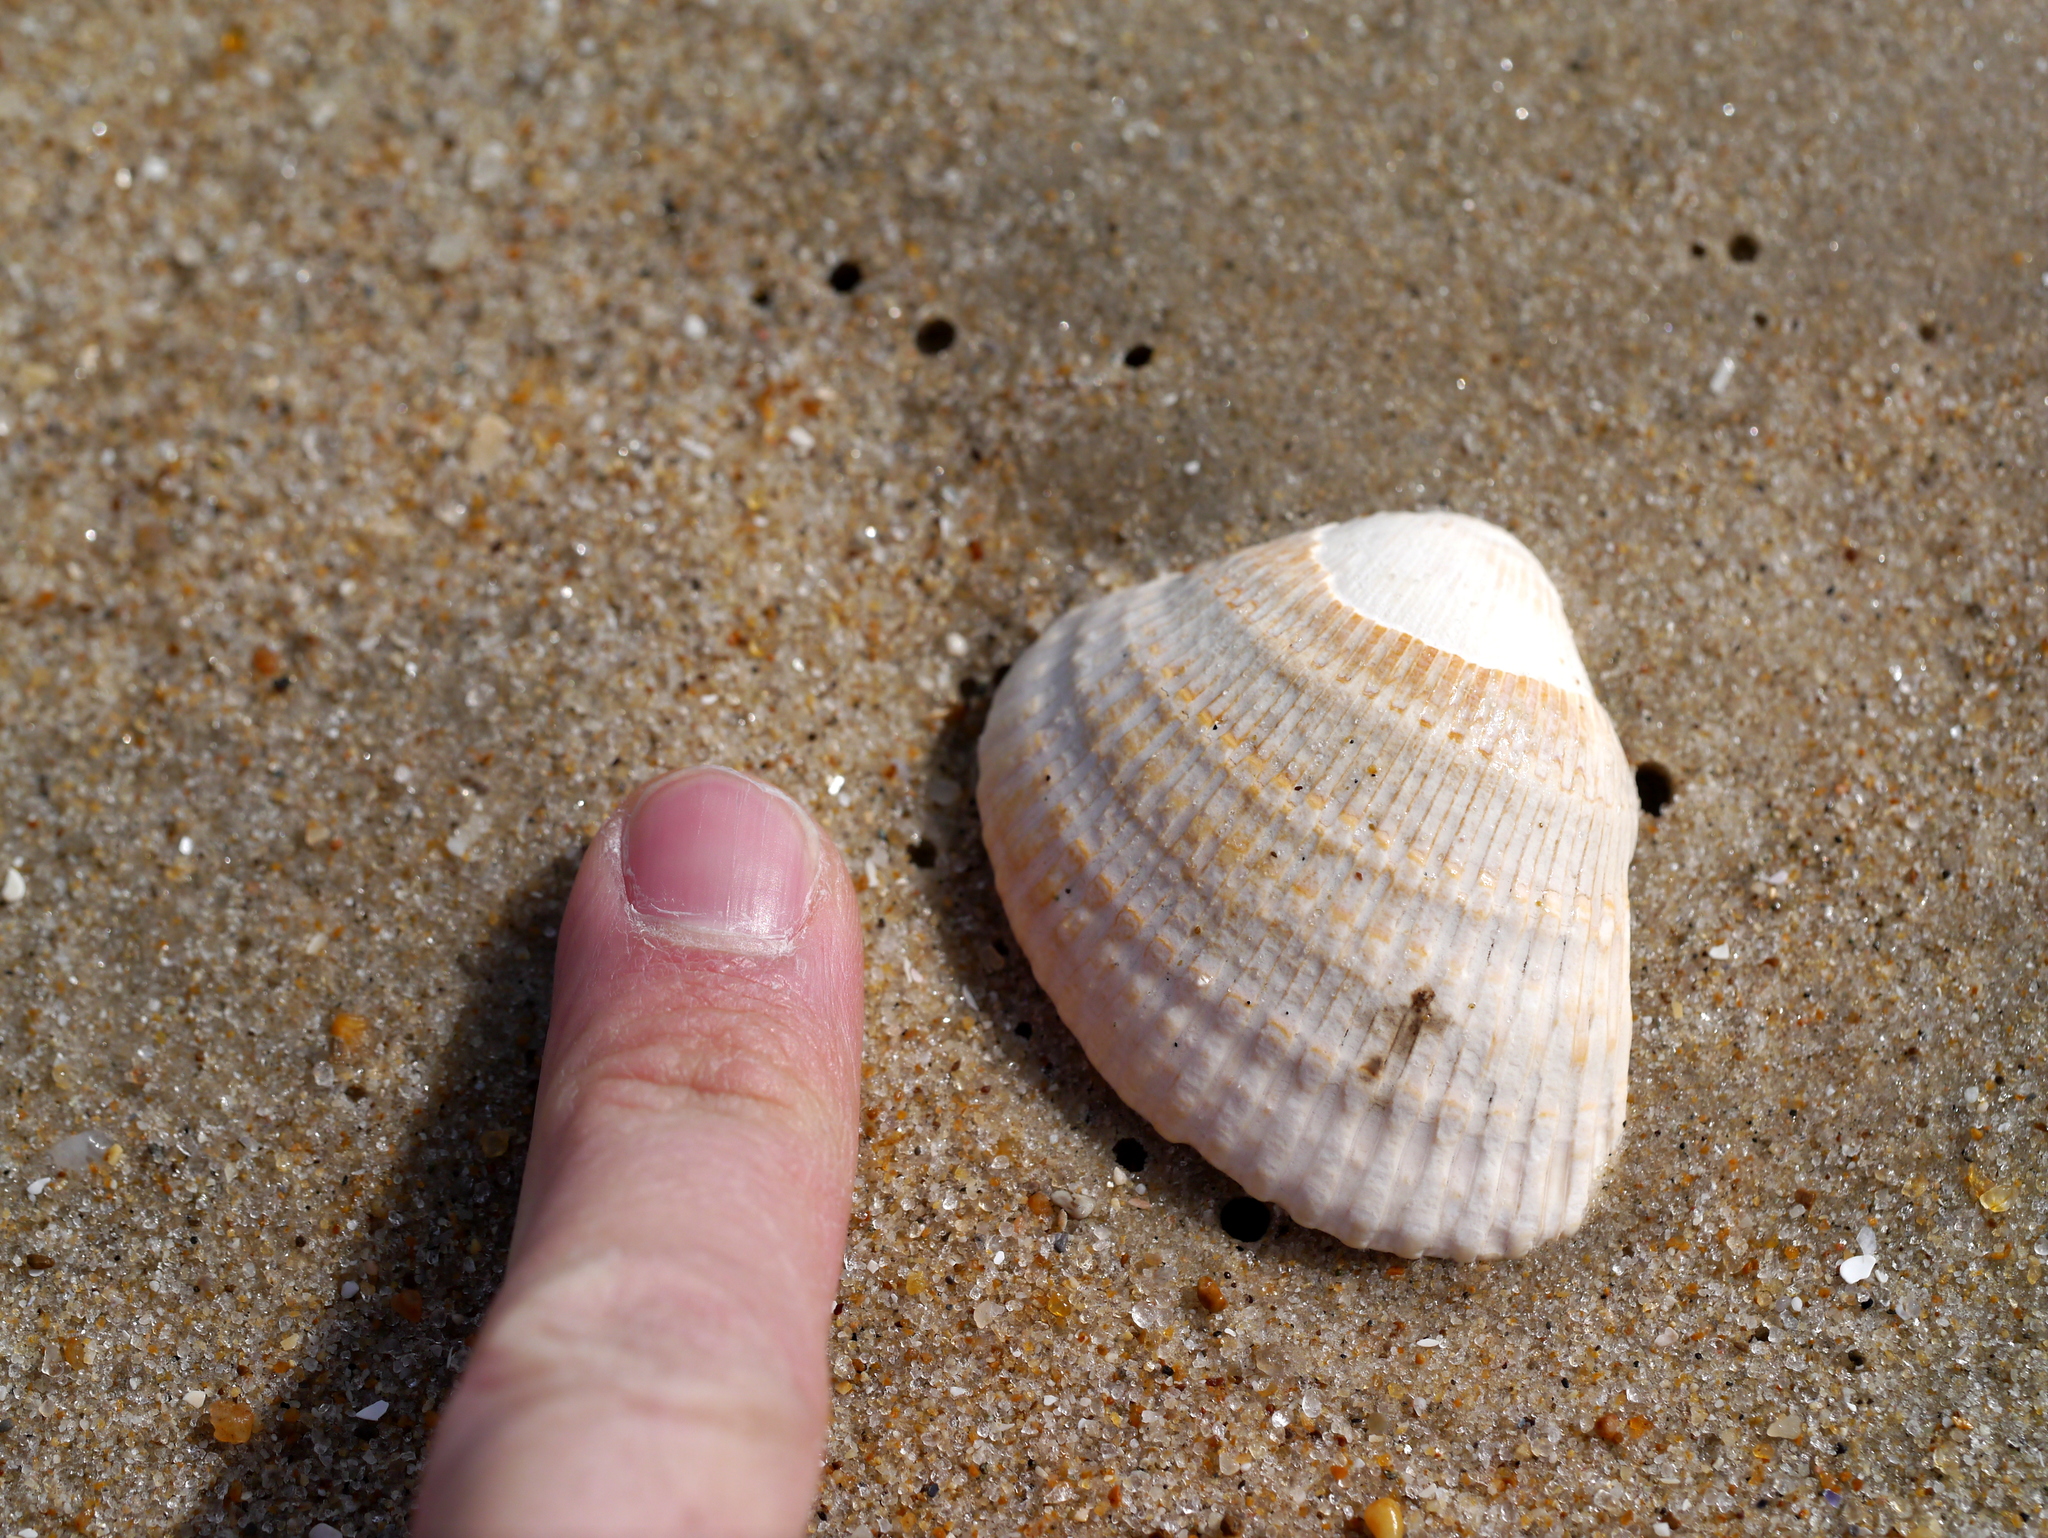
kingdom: Animalia
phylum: Mollusca
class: Bivalvia
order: Arcida
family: Arcidae
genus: Lunarca
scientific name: Lunarca ovalis
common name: Blood ark
